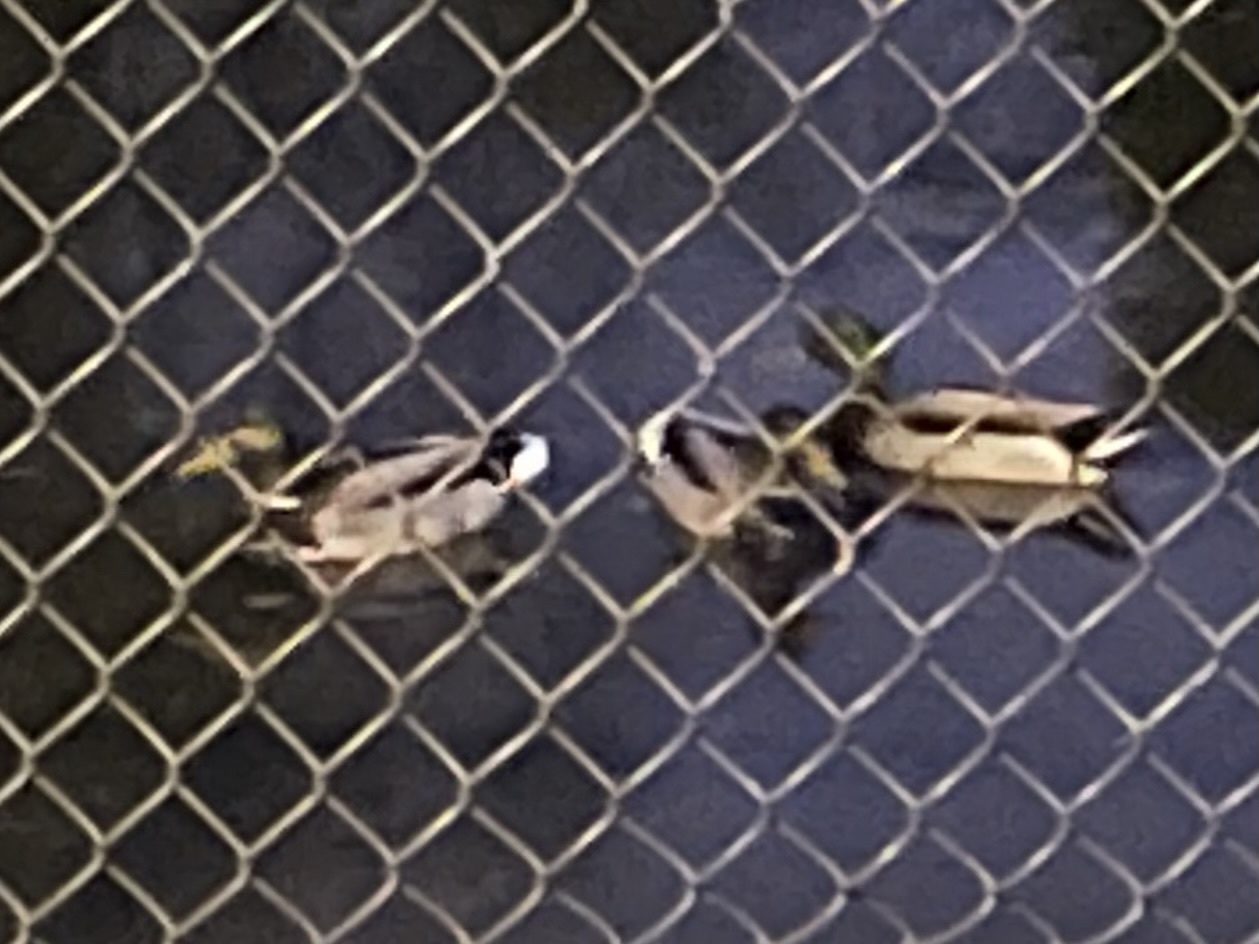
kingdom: Animalia
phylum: Chordata
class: Aves
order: Anseriformes
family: Anatidae
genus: Anas
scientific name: Anas platyrhynchos
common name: Mallard
